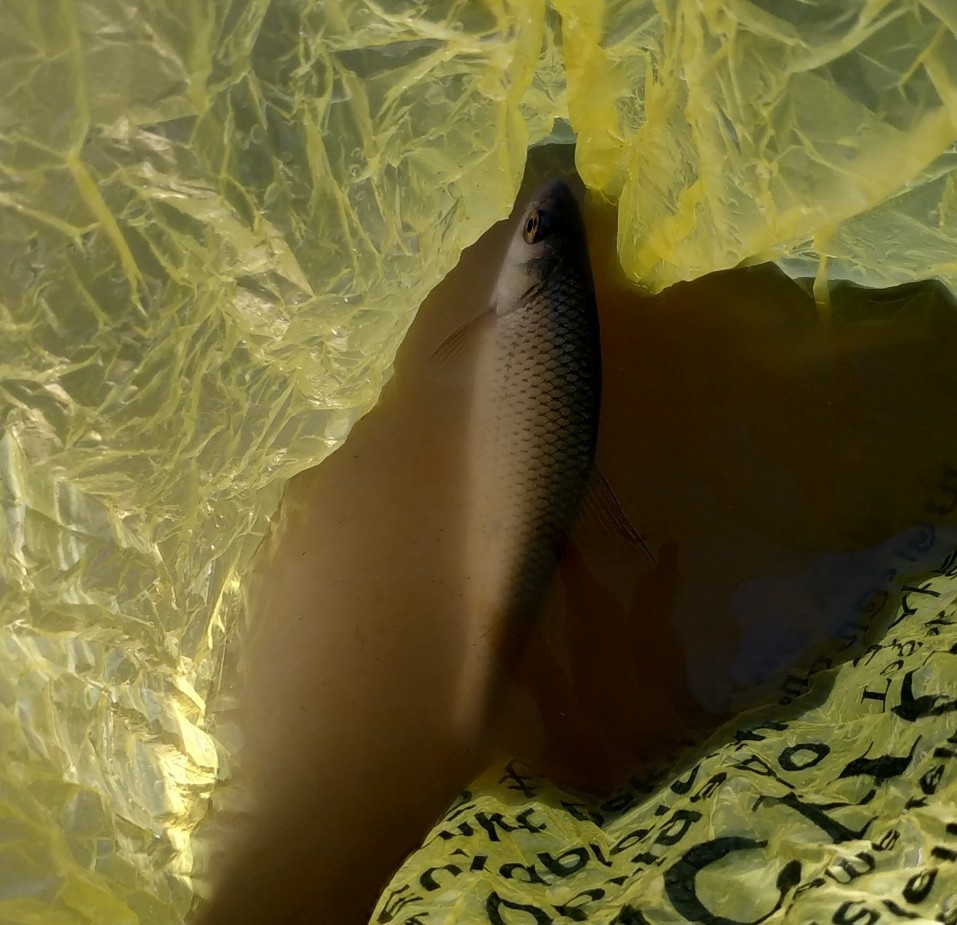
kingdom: Animalia
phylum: Chordata
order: Cypriniformes
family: Cyprinidae
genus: Rutilus
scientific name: Rutilus rutilus
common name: Roach
